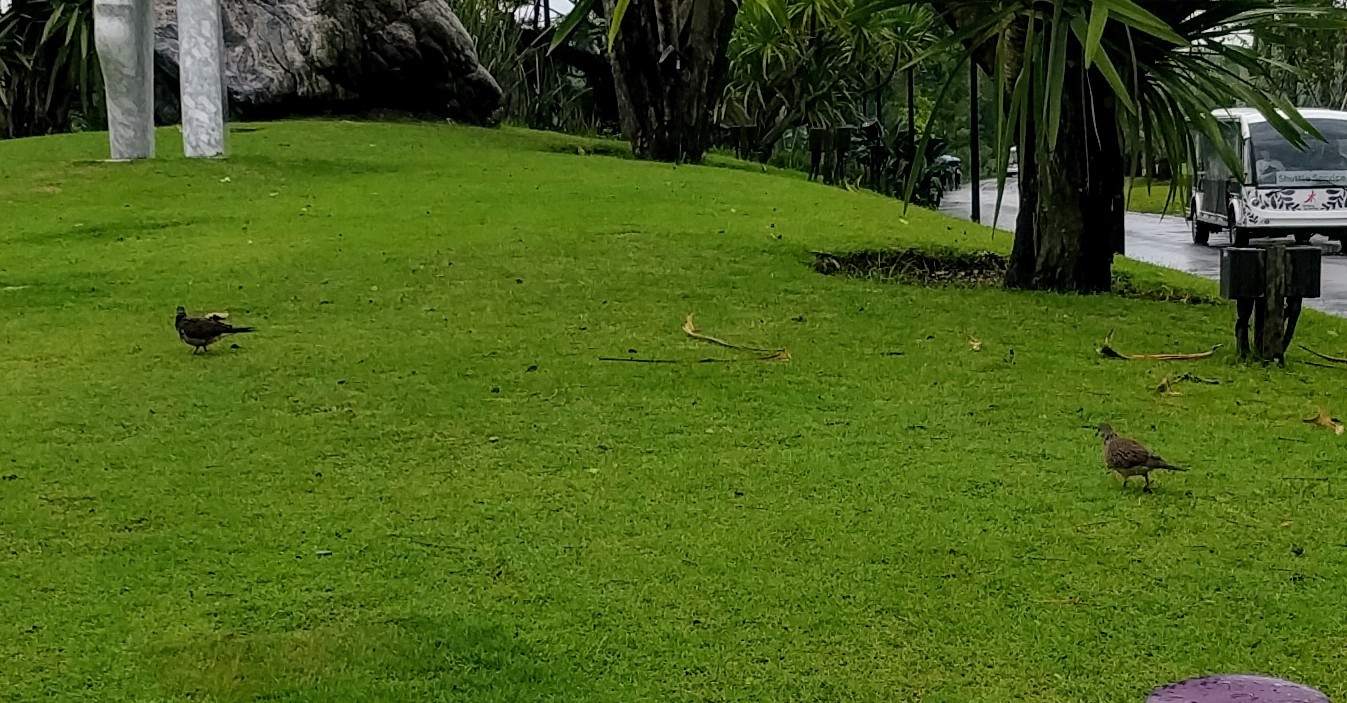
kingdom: Animalia
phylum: Chordata
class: Aves
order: Columbiformes
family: Columbidae
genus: Spilopelia
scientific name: Spilopelia chinensis
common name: Spotted dove
